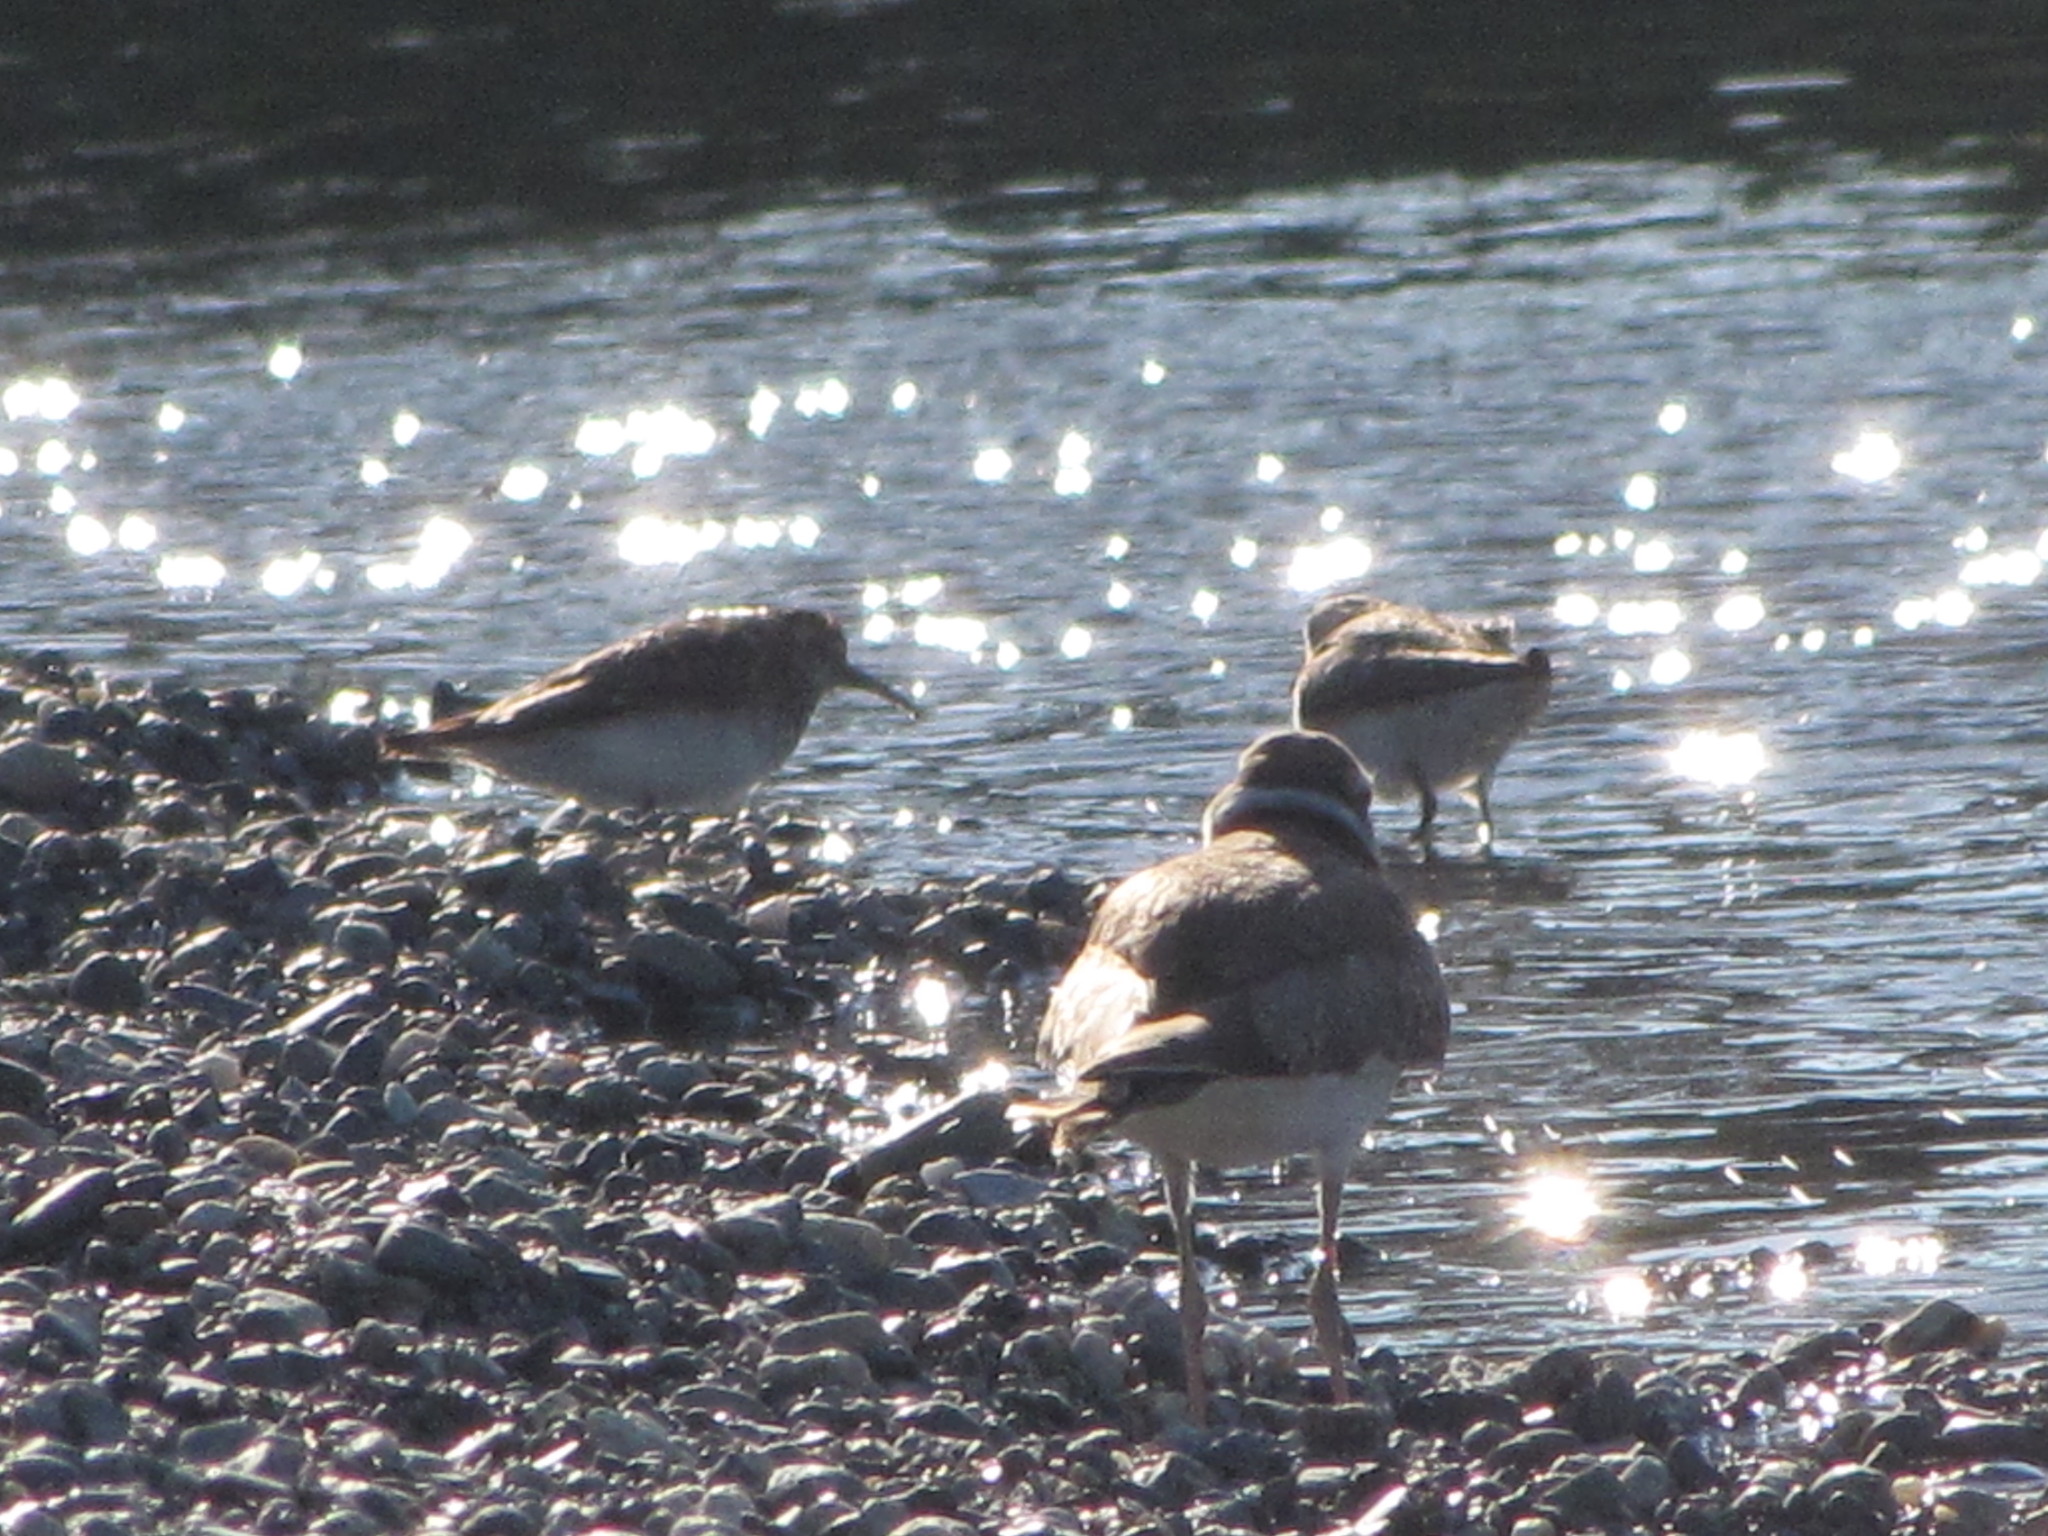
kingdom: Animalia
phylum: Chordata
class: Aves
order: Charadriiformes
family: Charadriidae
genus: Charadrius
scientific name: Charadrius vociferus
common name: Killdeer
